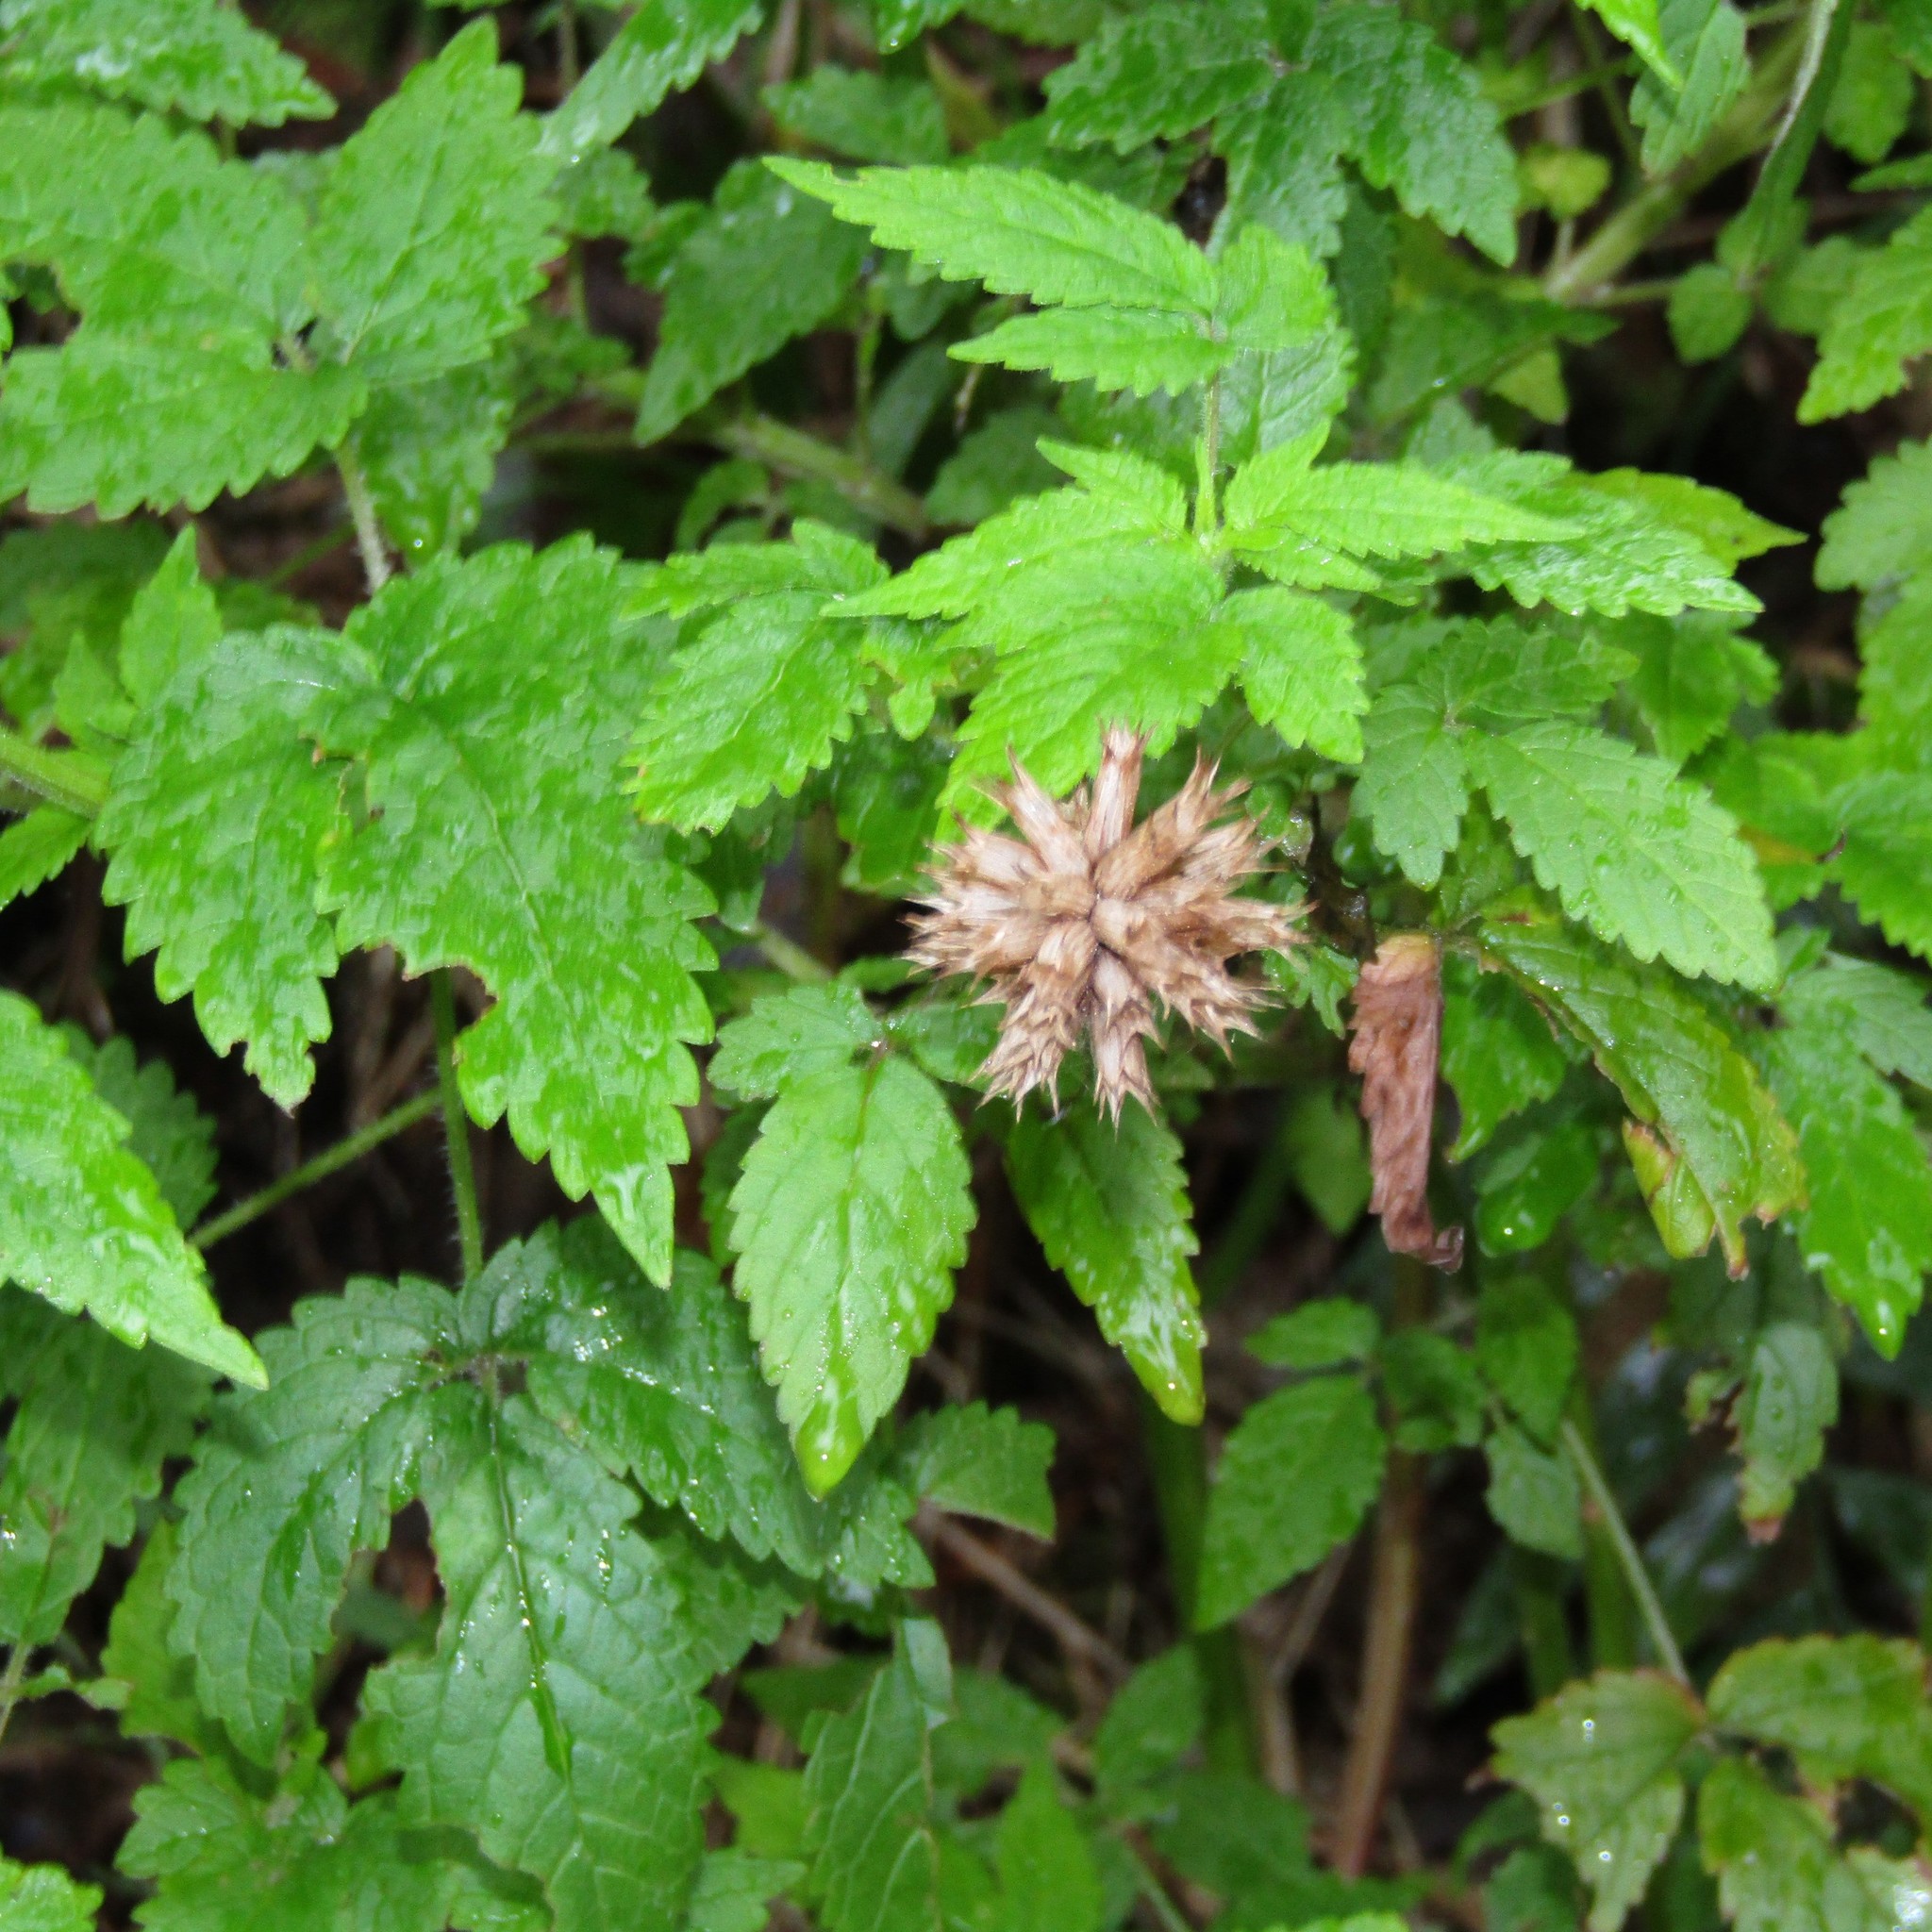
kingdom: Plantae
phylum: Tracheophyta
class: Magnoliopsida
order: Lamiales
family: Lamiaceae
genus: Cedronella
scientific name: Cedronella canariensis
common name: Canary islands balm
